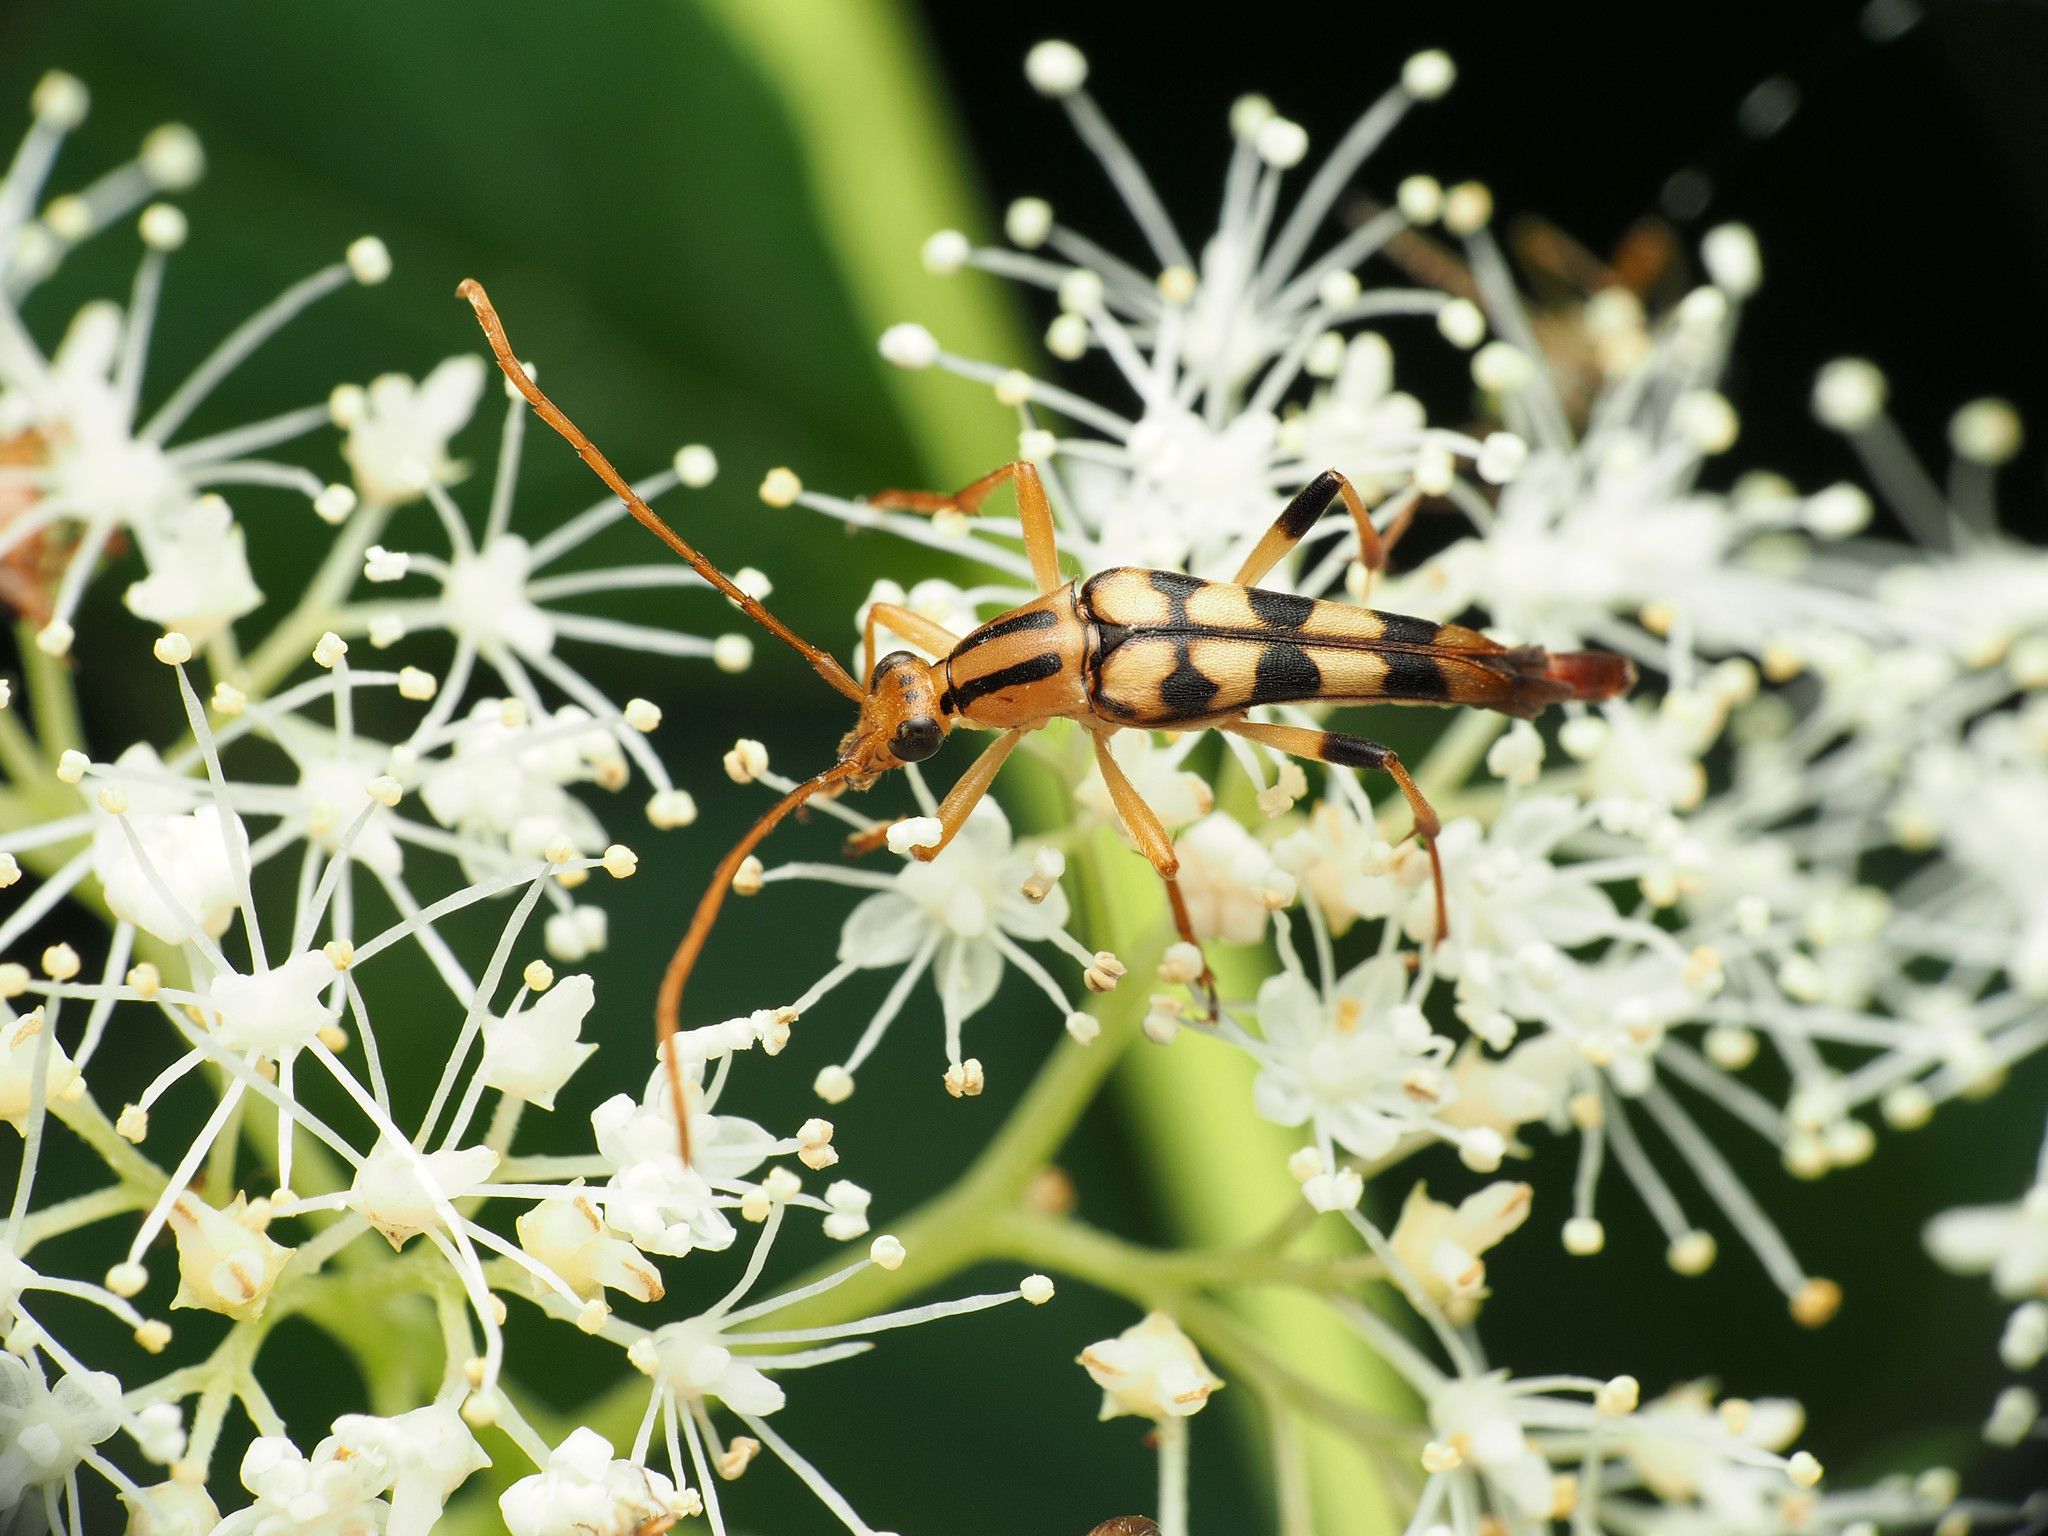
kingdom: Animalia
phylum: Arthropoda
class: Insecta
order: Coleoptera
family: Cerambycidae
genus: Strangalia
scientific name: Strangalia luteicornis
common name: Yellow-horned flower longhorn beetle
